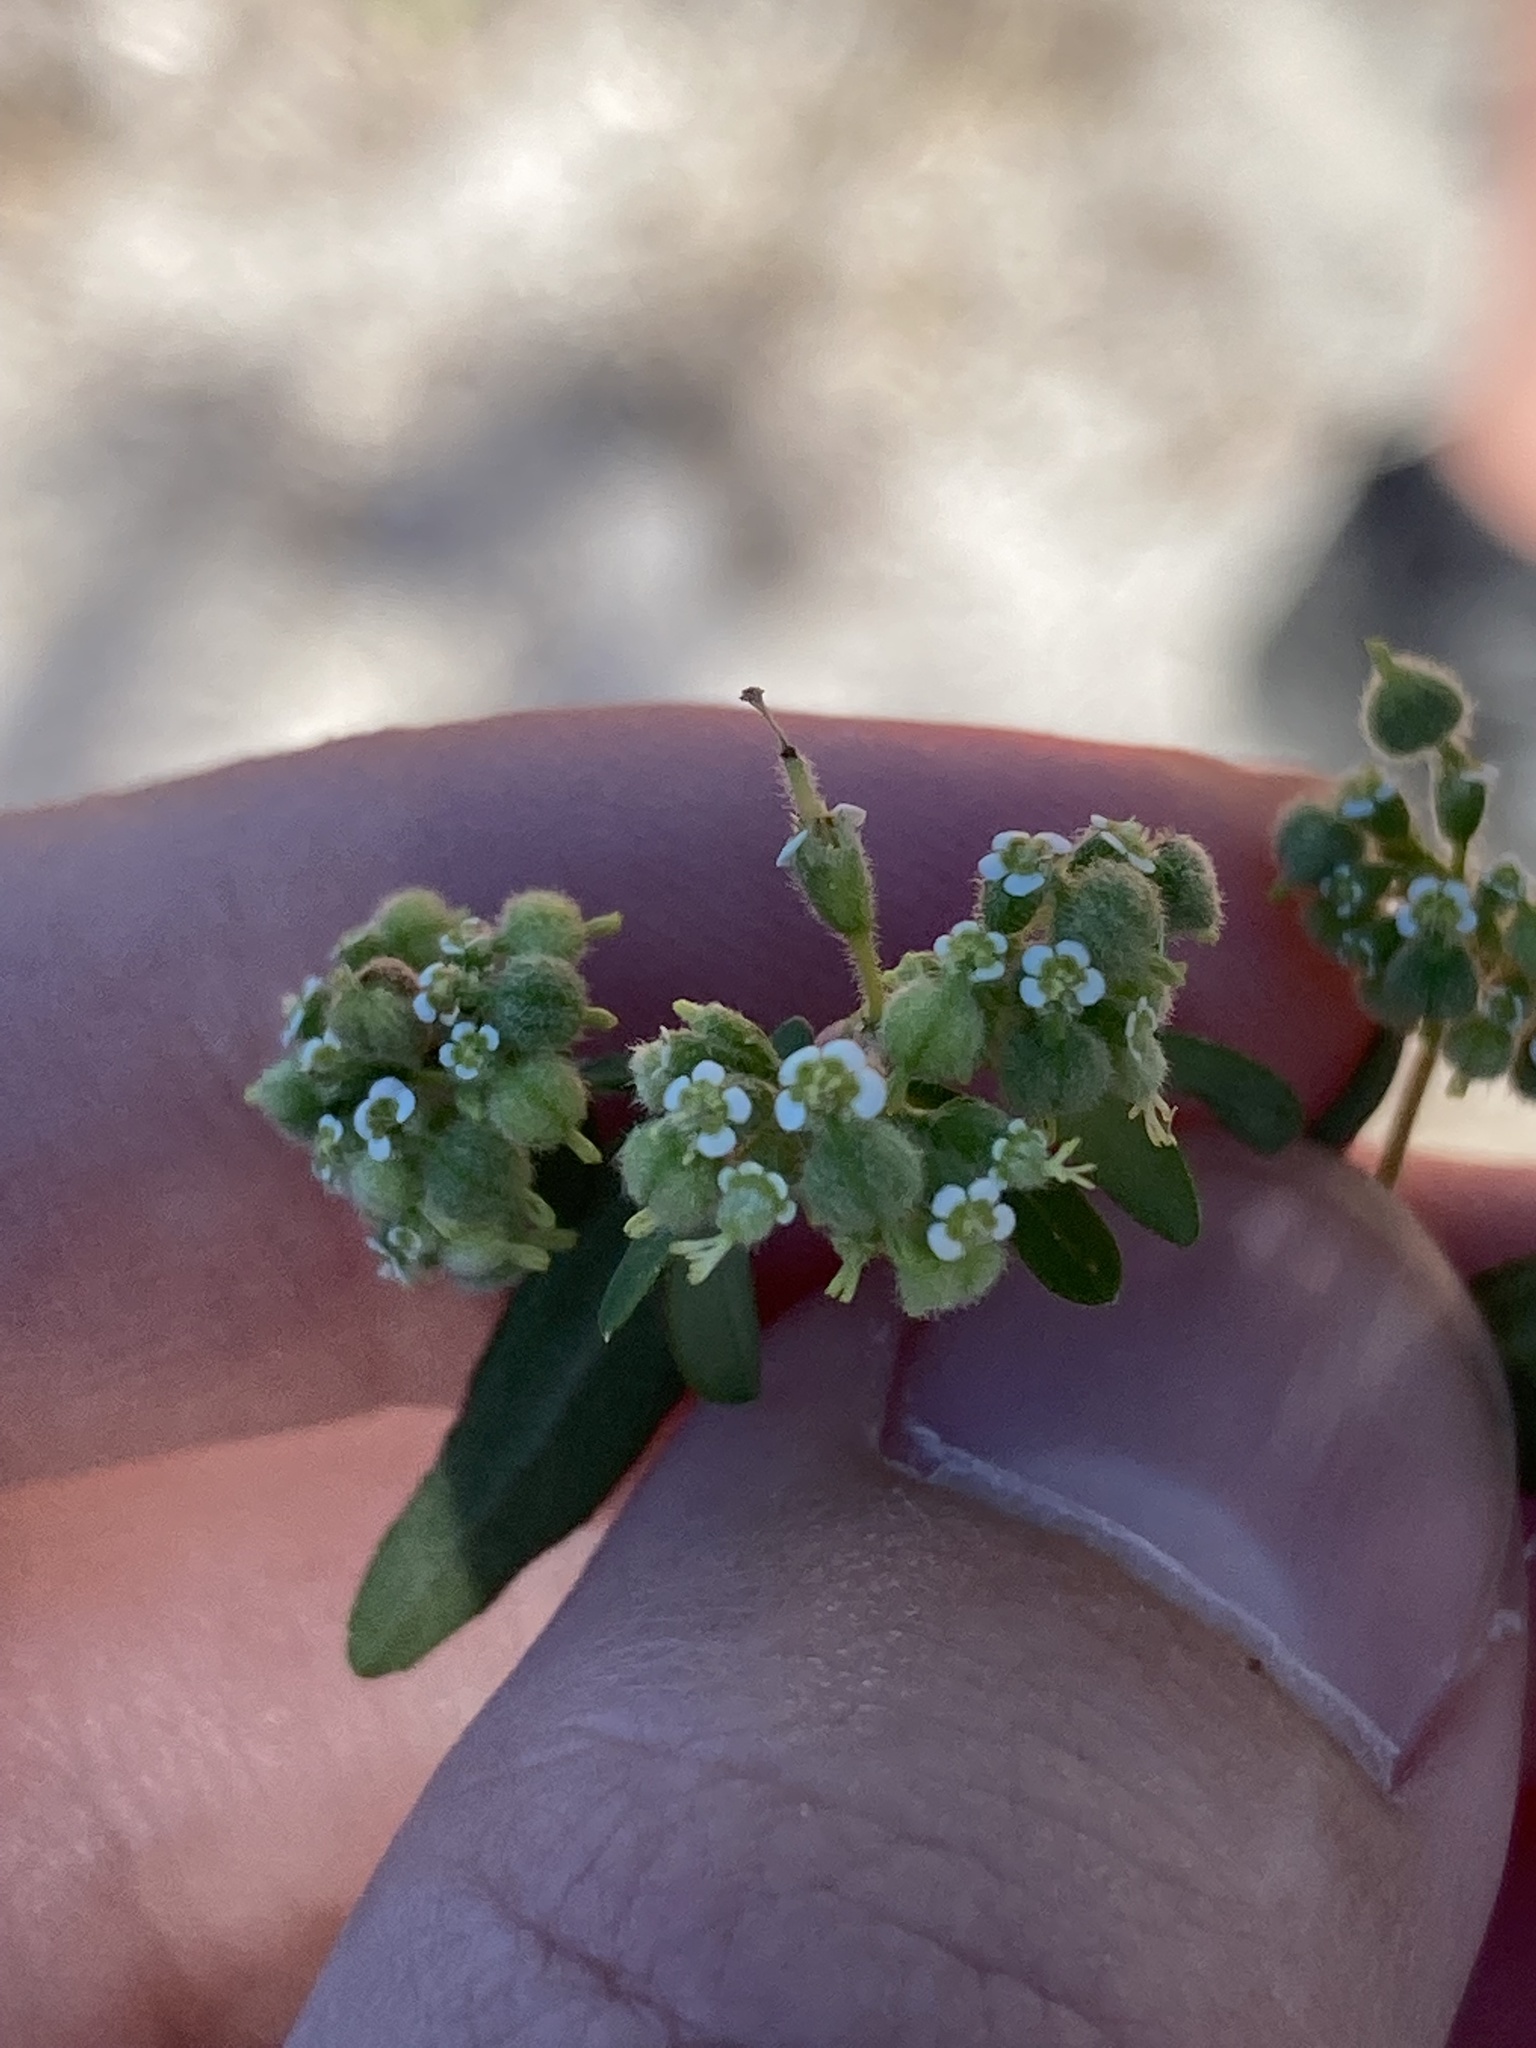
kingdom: Plantae
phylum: Tracheophyta
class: Magnoliopsida
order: Malpighiales
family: Euphorbiaceae
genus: Euphorbia
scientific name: Euphorbia lasiocarpa
